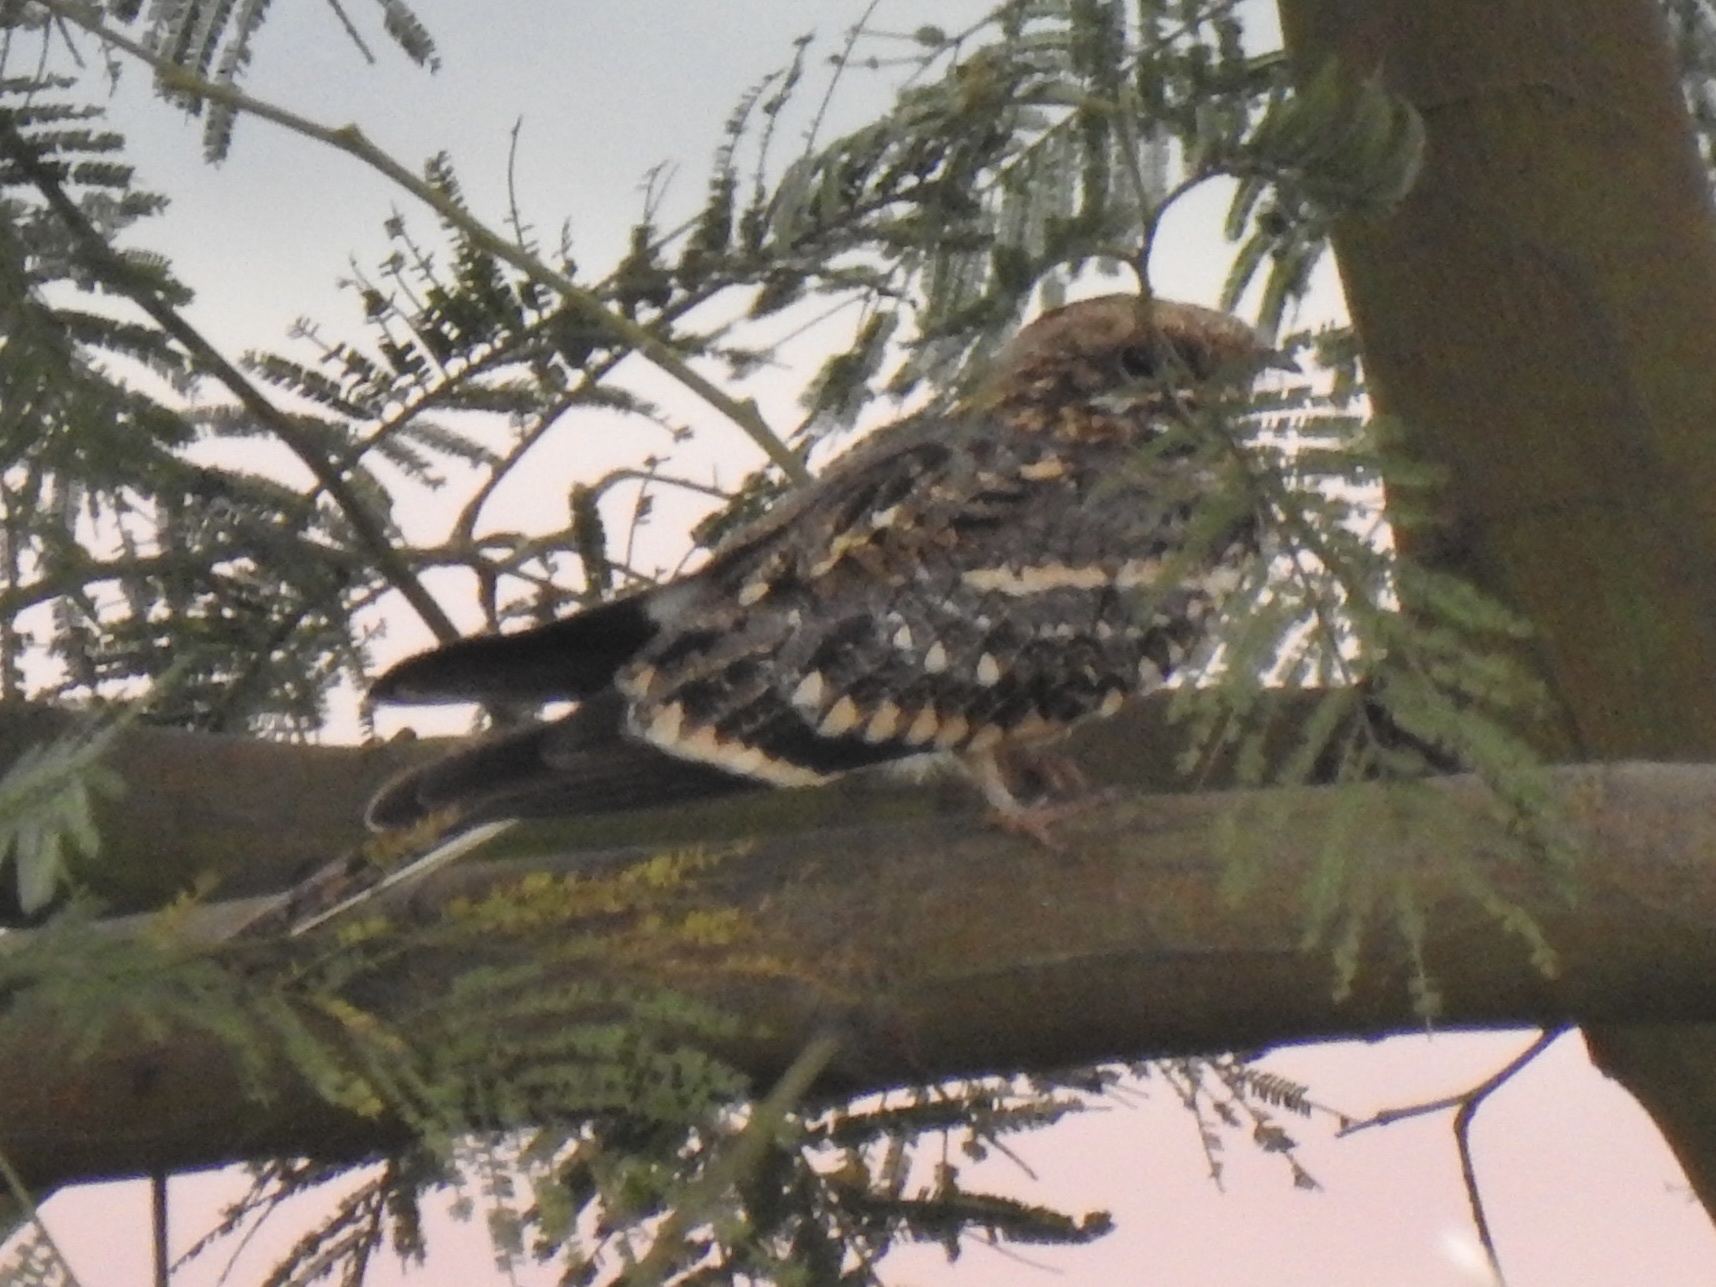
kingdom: Animalia
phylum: Chordata
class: Aves
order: Caprimulgiformes
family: Caprimulgidae
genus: Caprimulgus
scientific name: Caprimulgus fossii
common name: Square-tailed nightjar
